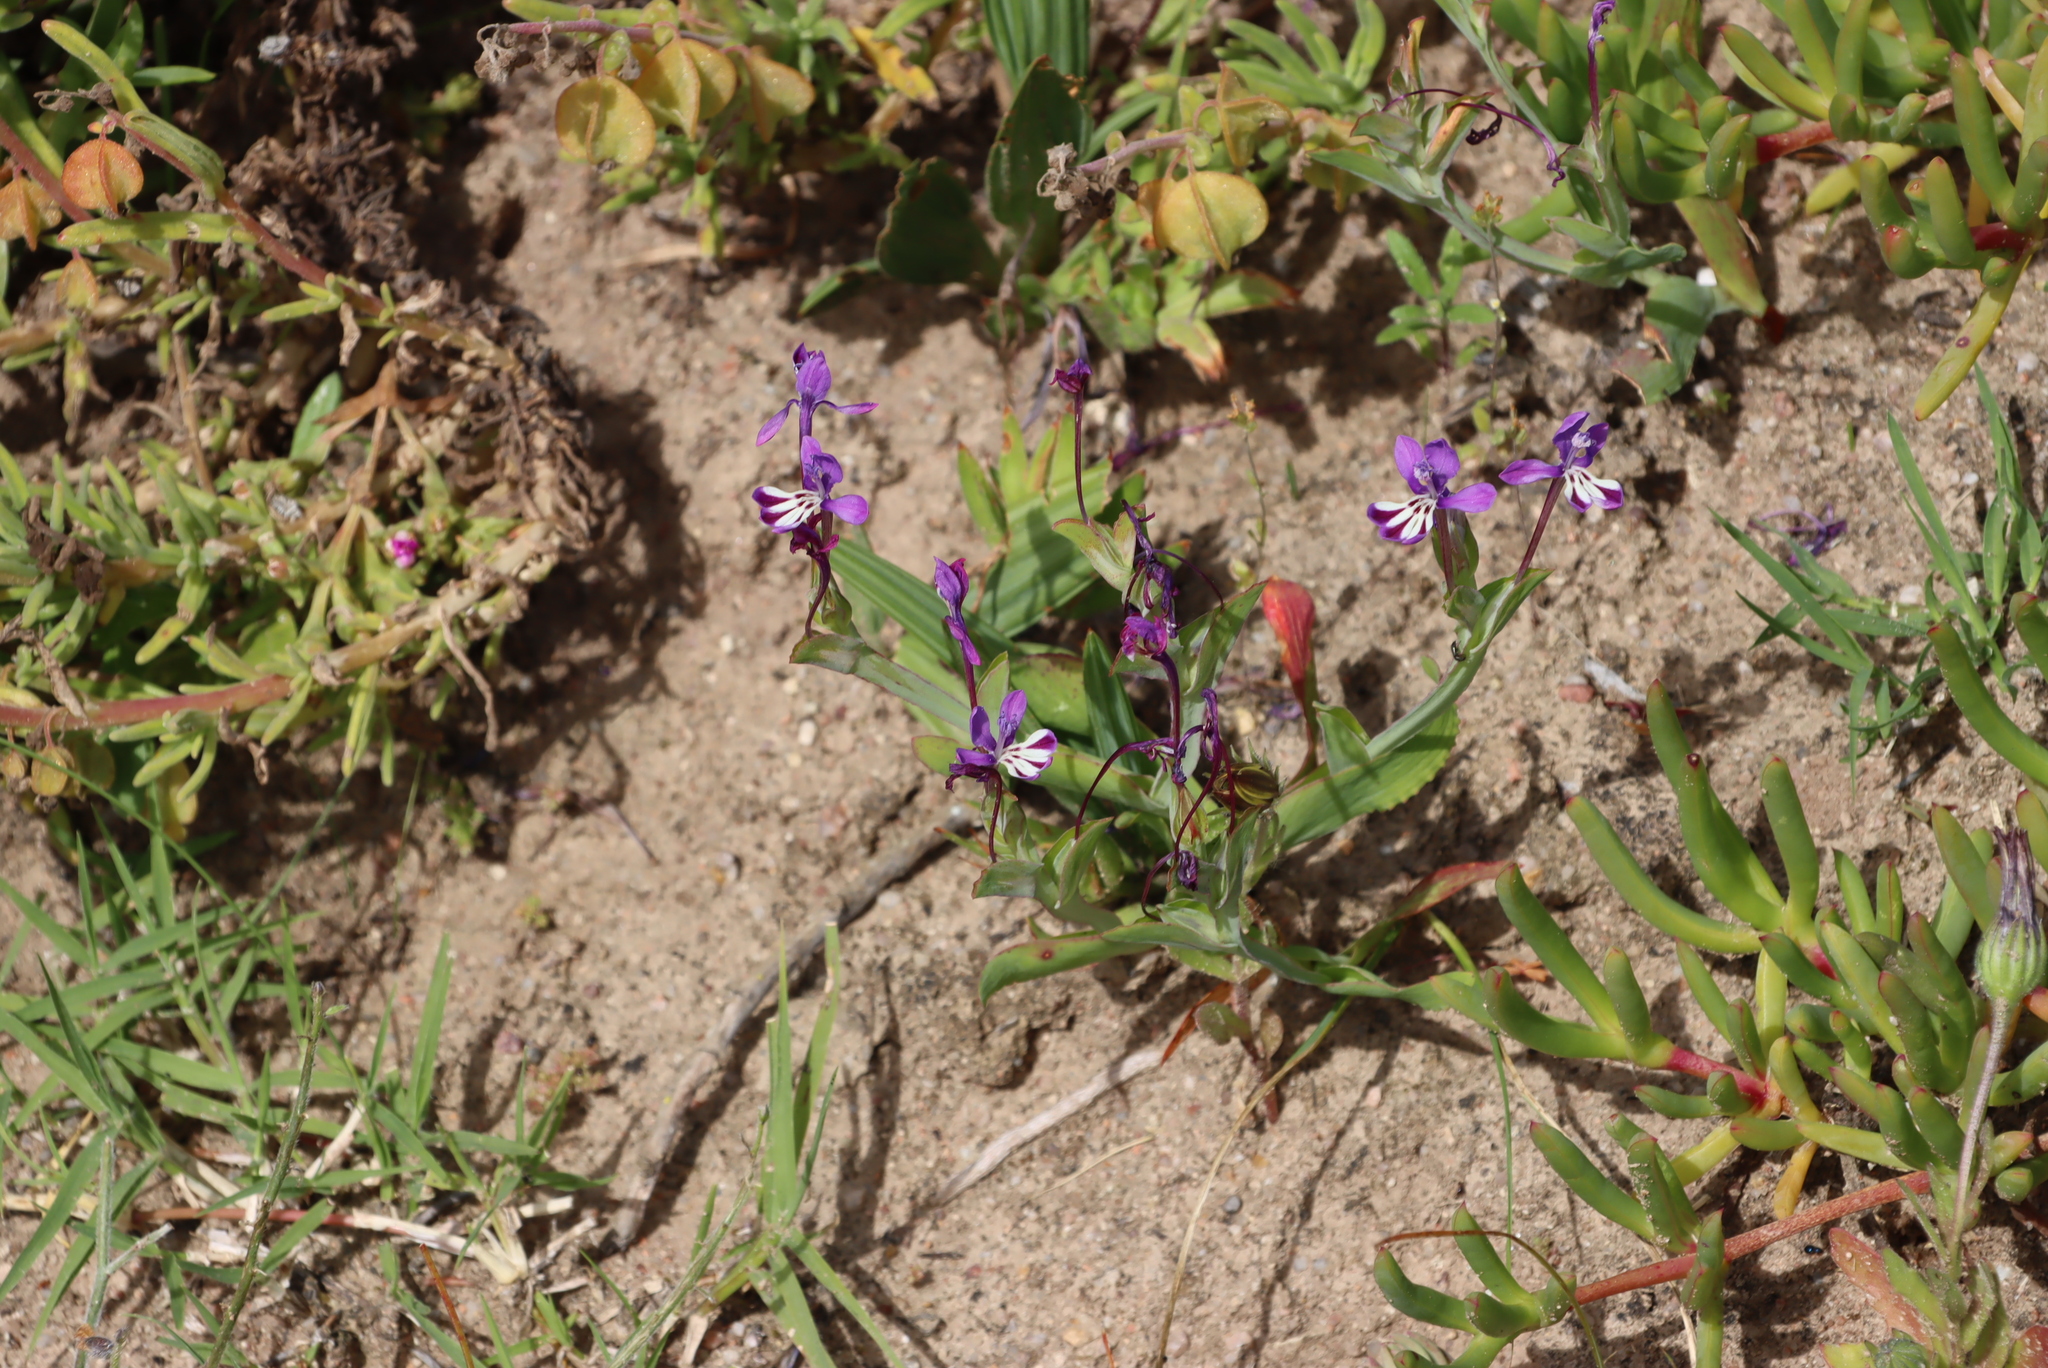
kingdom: Plantae
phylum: Tracheophyta
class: Liliopsida
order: Asparagales
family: Iridaceae
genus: Lapeirousia
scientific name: Lapeirousia jacquinii
